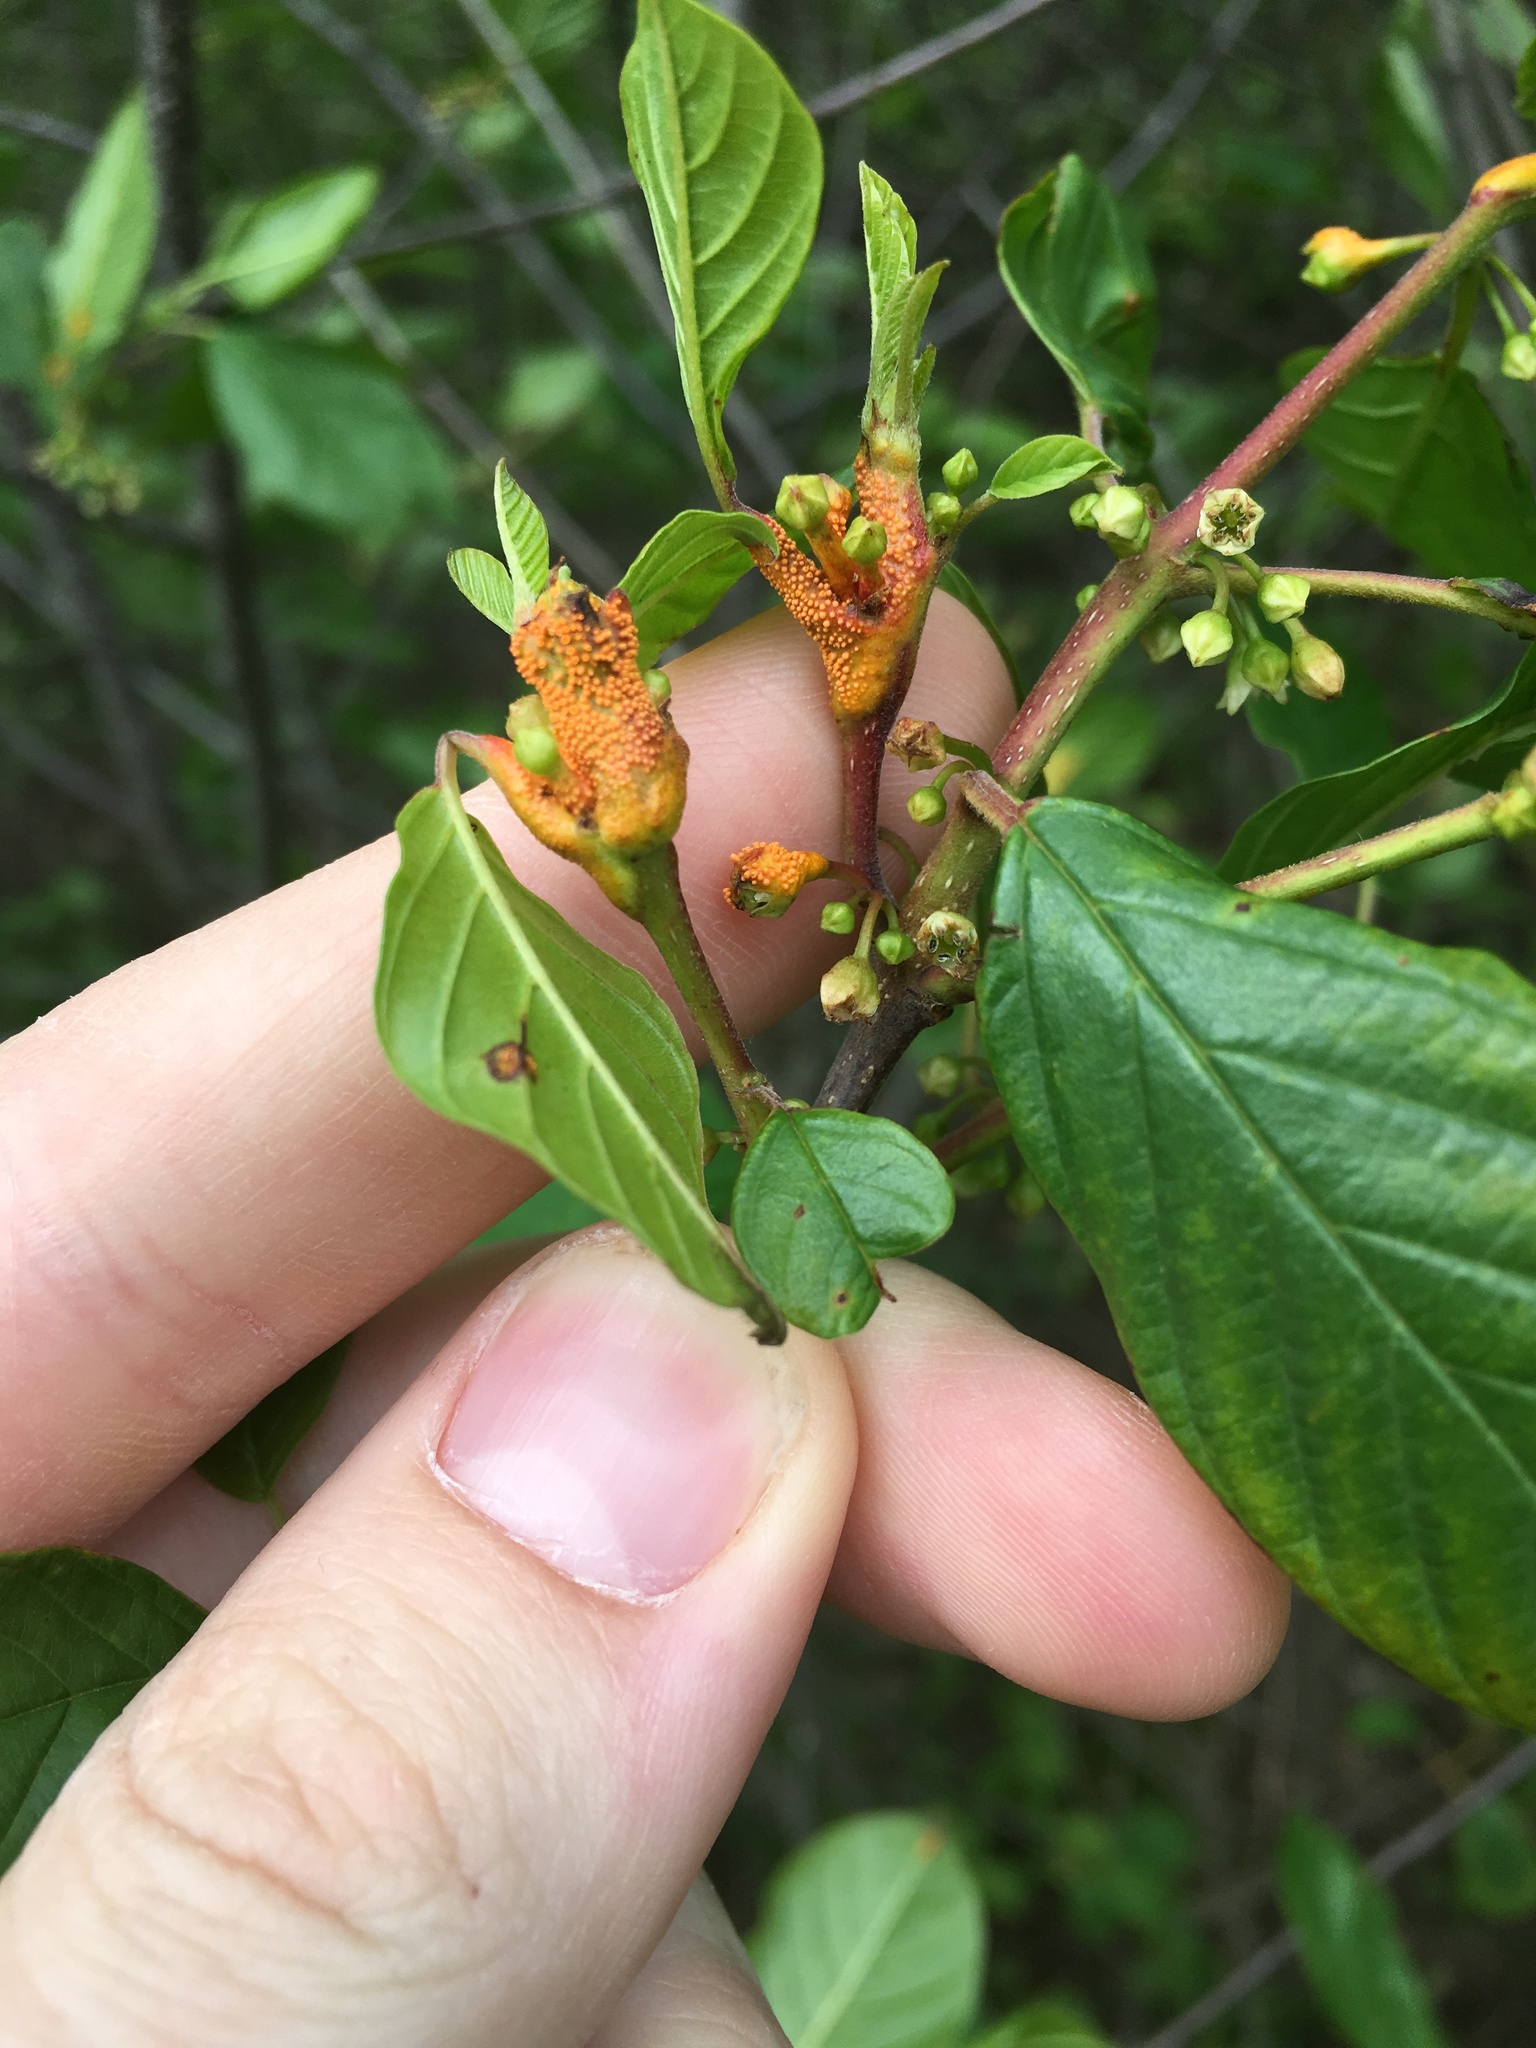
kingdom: Fungi
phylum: Basidiomycota
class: Pucciniomycetes
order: Pucciniales
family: Pucciniaceae
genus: Puccinia
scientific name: Puccinia coronata
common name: Crown rust
